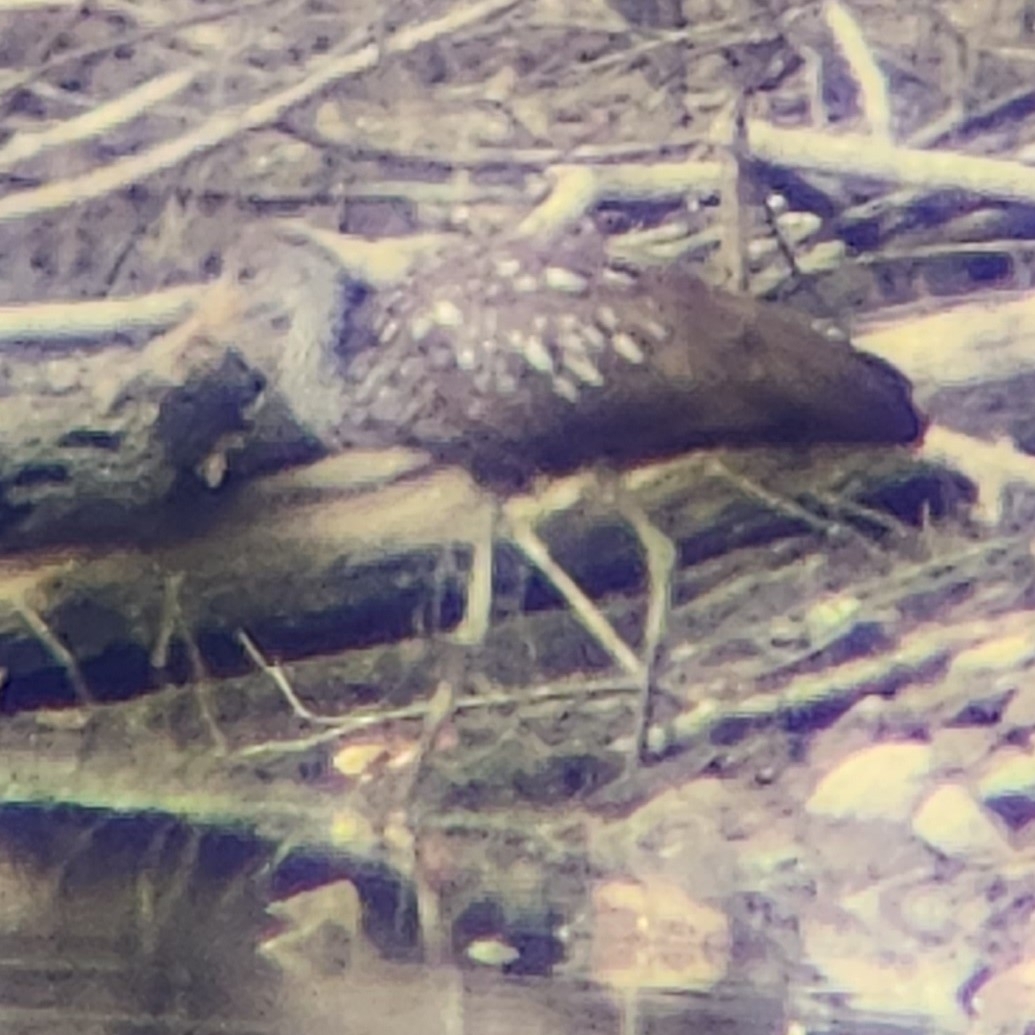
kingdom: Animalia
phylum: Chordata
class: Aves
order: Gruiformes
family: Aramidae
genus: Aramus
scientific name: Aramus guarauna
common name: Limpkin
